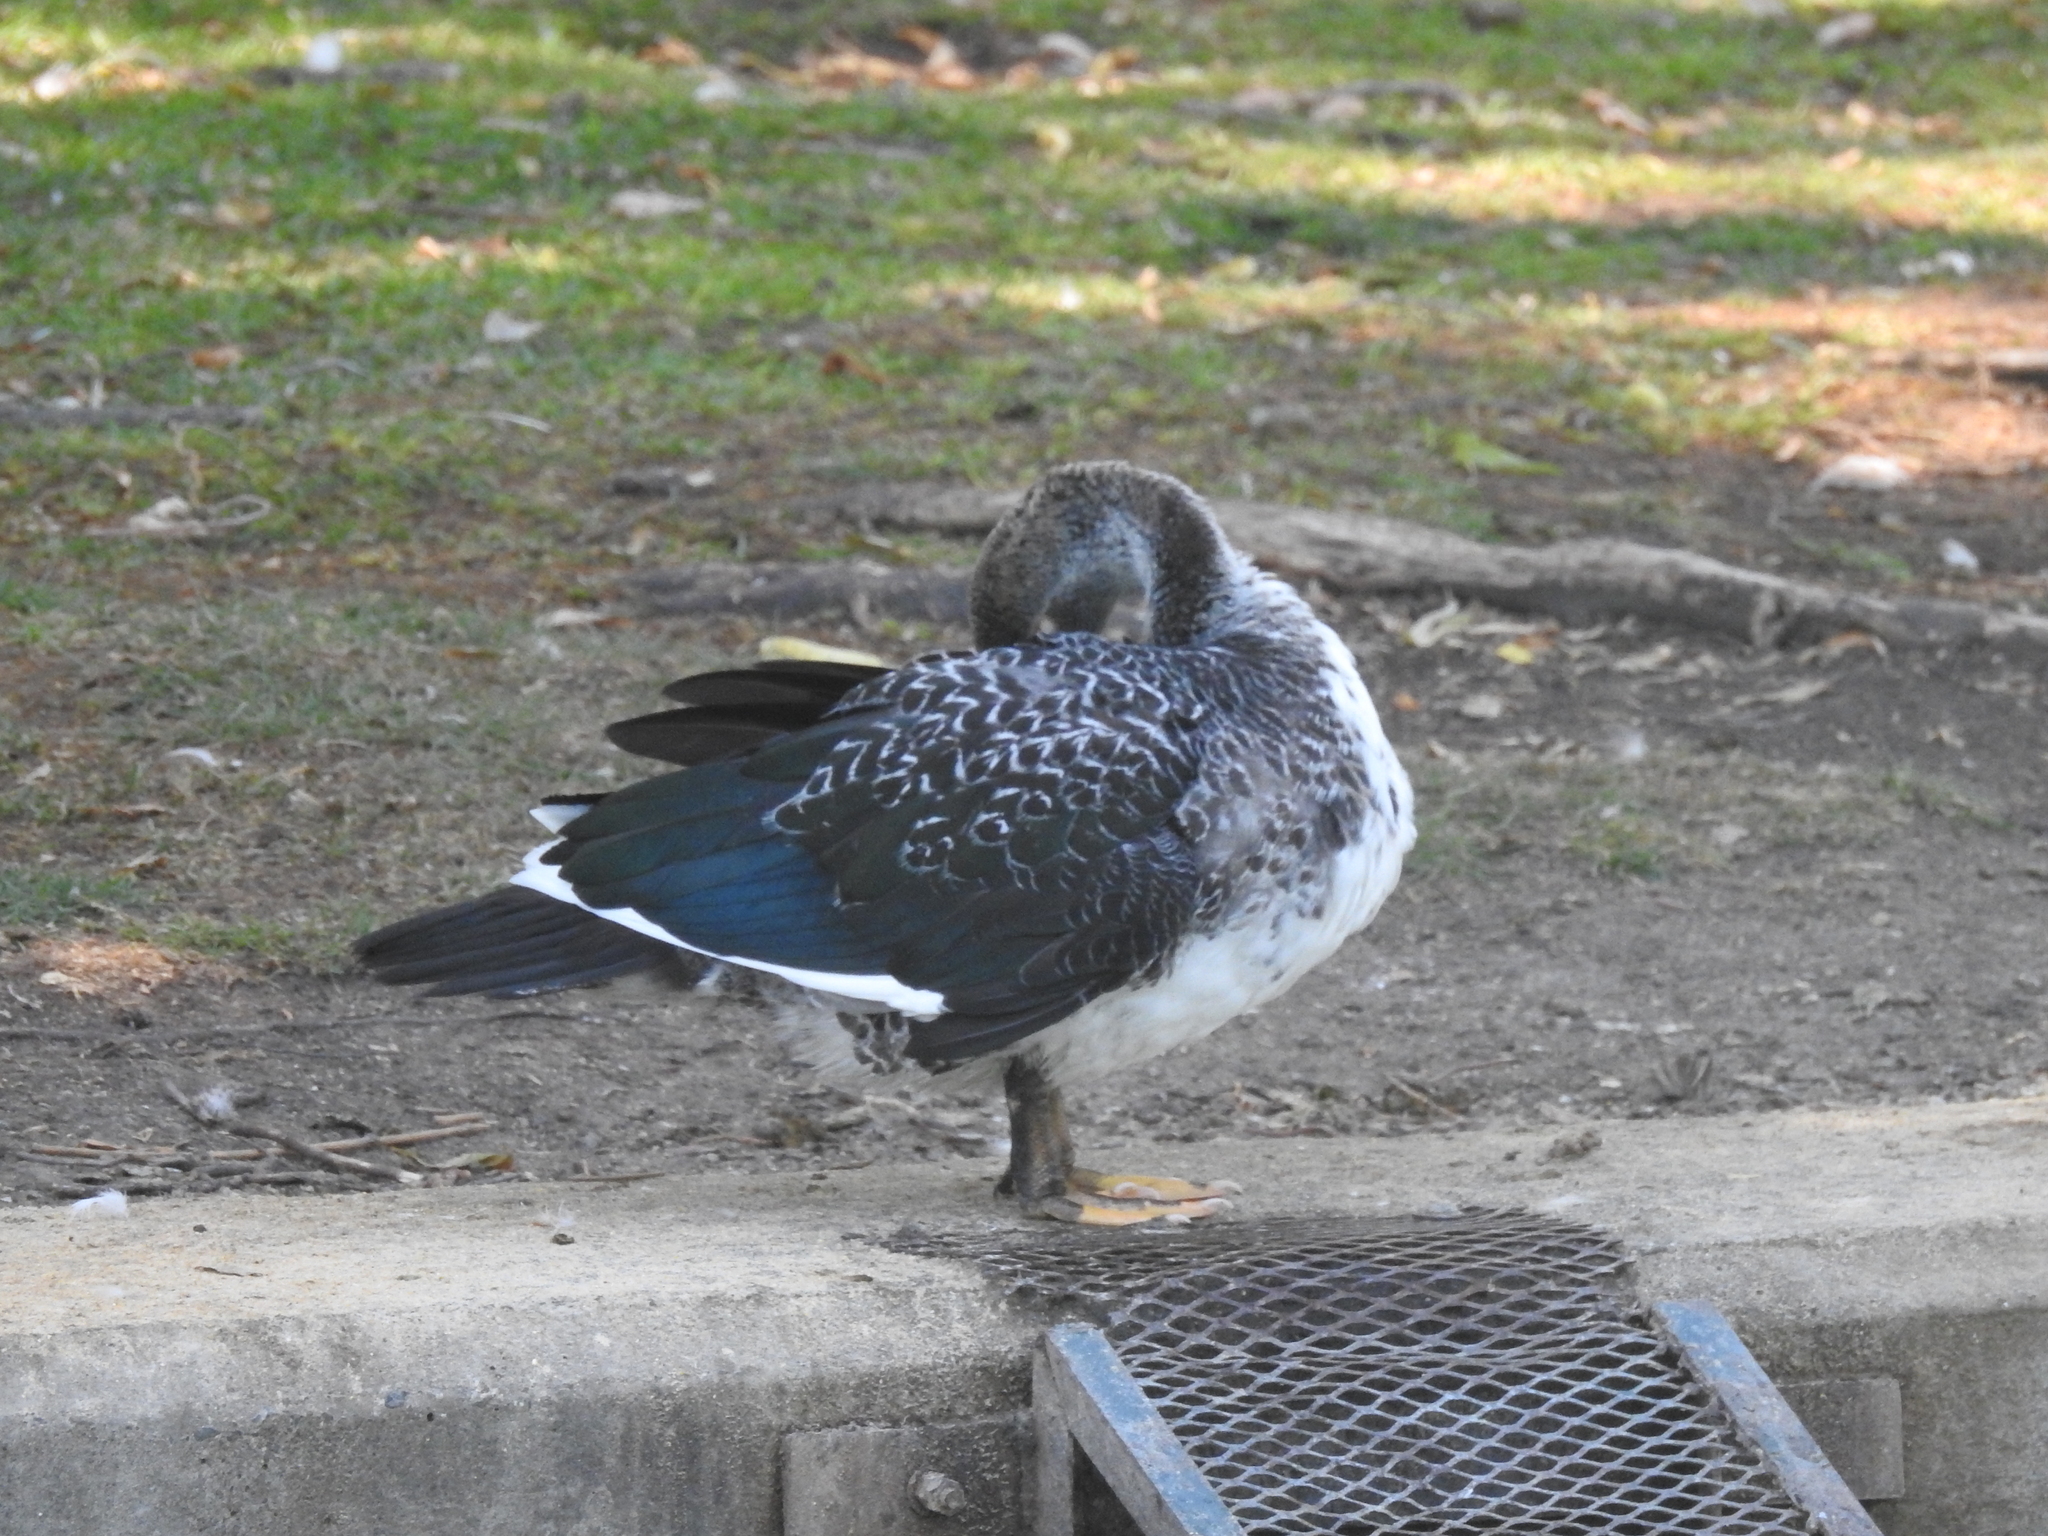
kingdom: Animalia
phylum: Chordata
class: Aves
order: Anseriformes
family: Anatidae
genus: Cairina
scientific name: Cairina moschata
